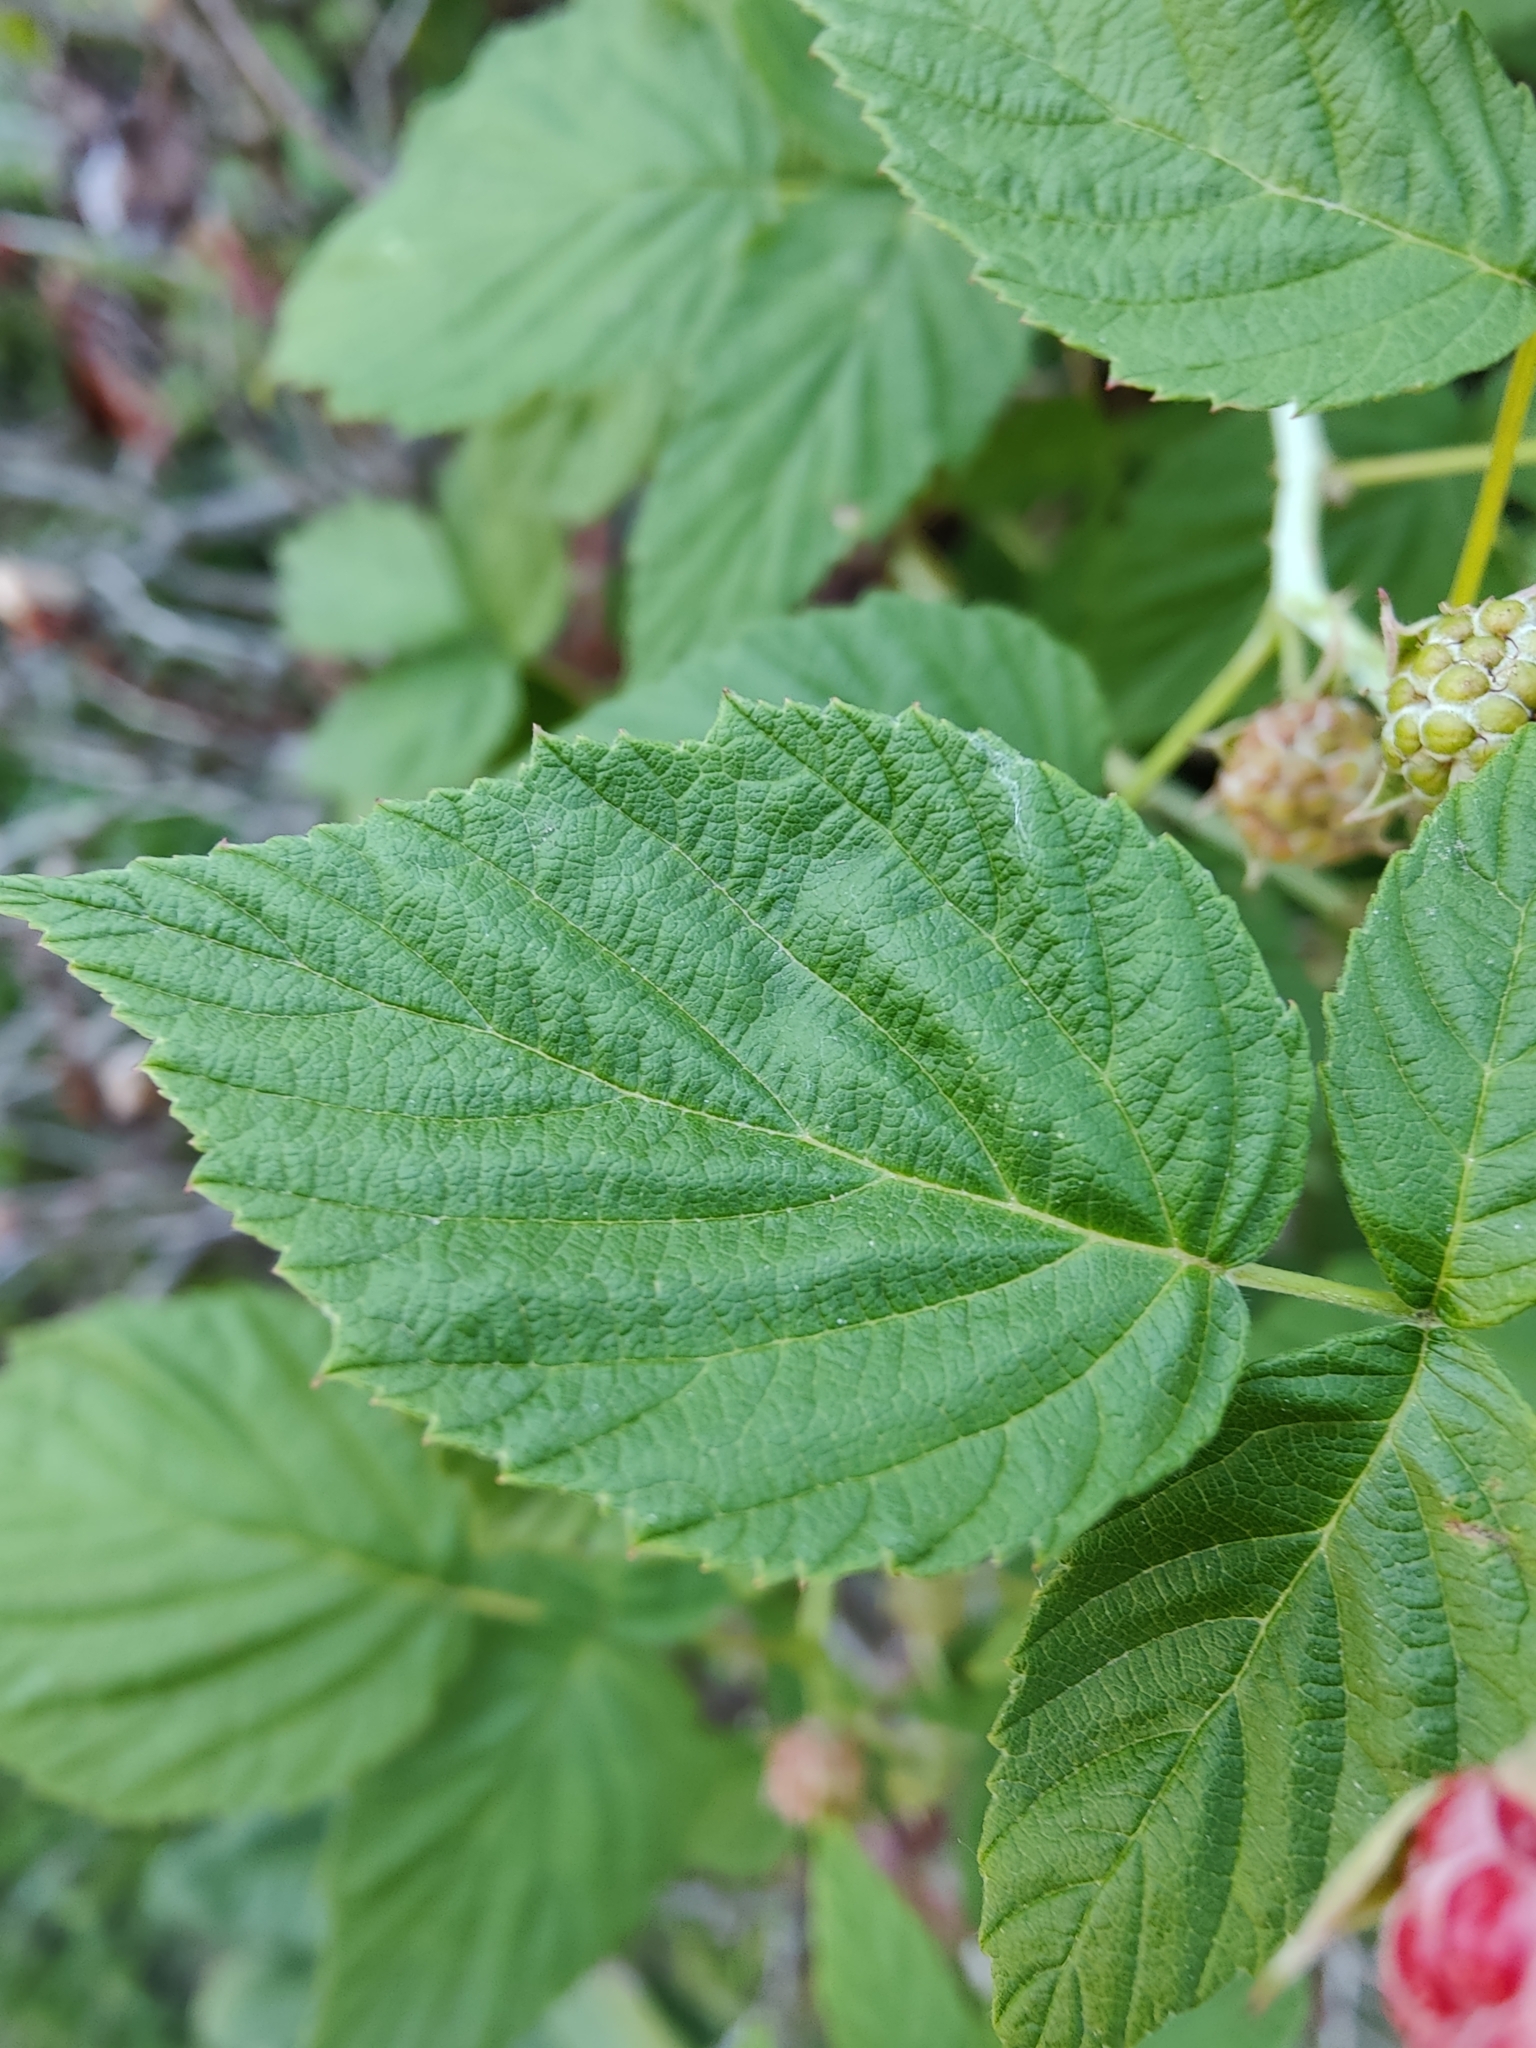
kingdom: Plantae
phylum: Tracheophyta
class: Magnoliopsida
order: Rosales
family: Rosaceae
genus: Rubus
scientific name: Rubus occidentalis
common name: Black raspberry
